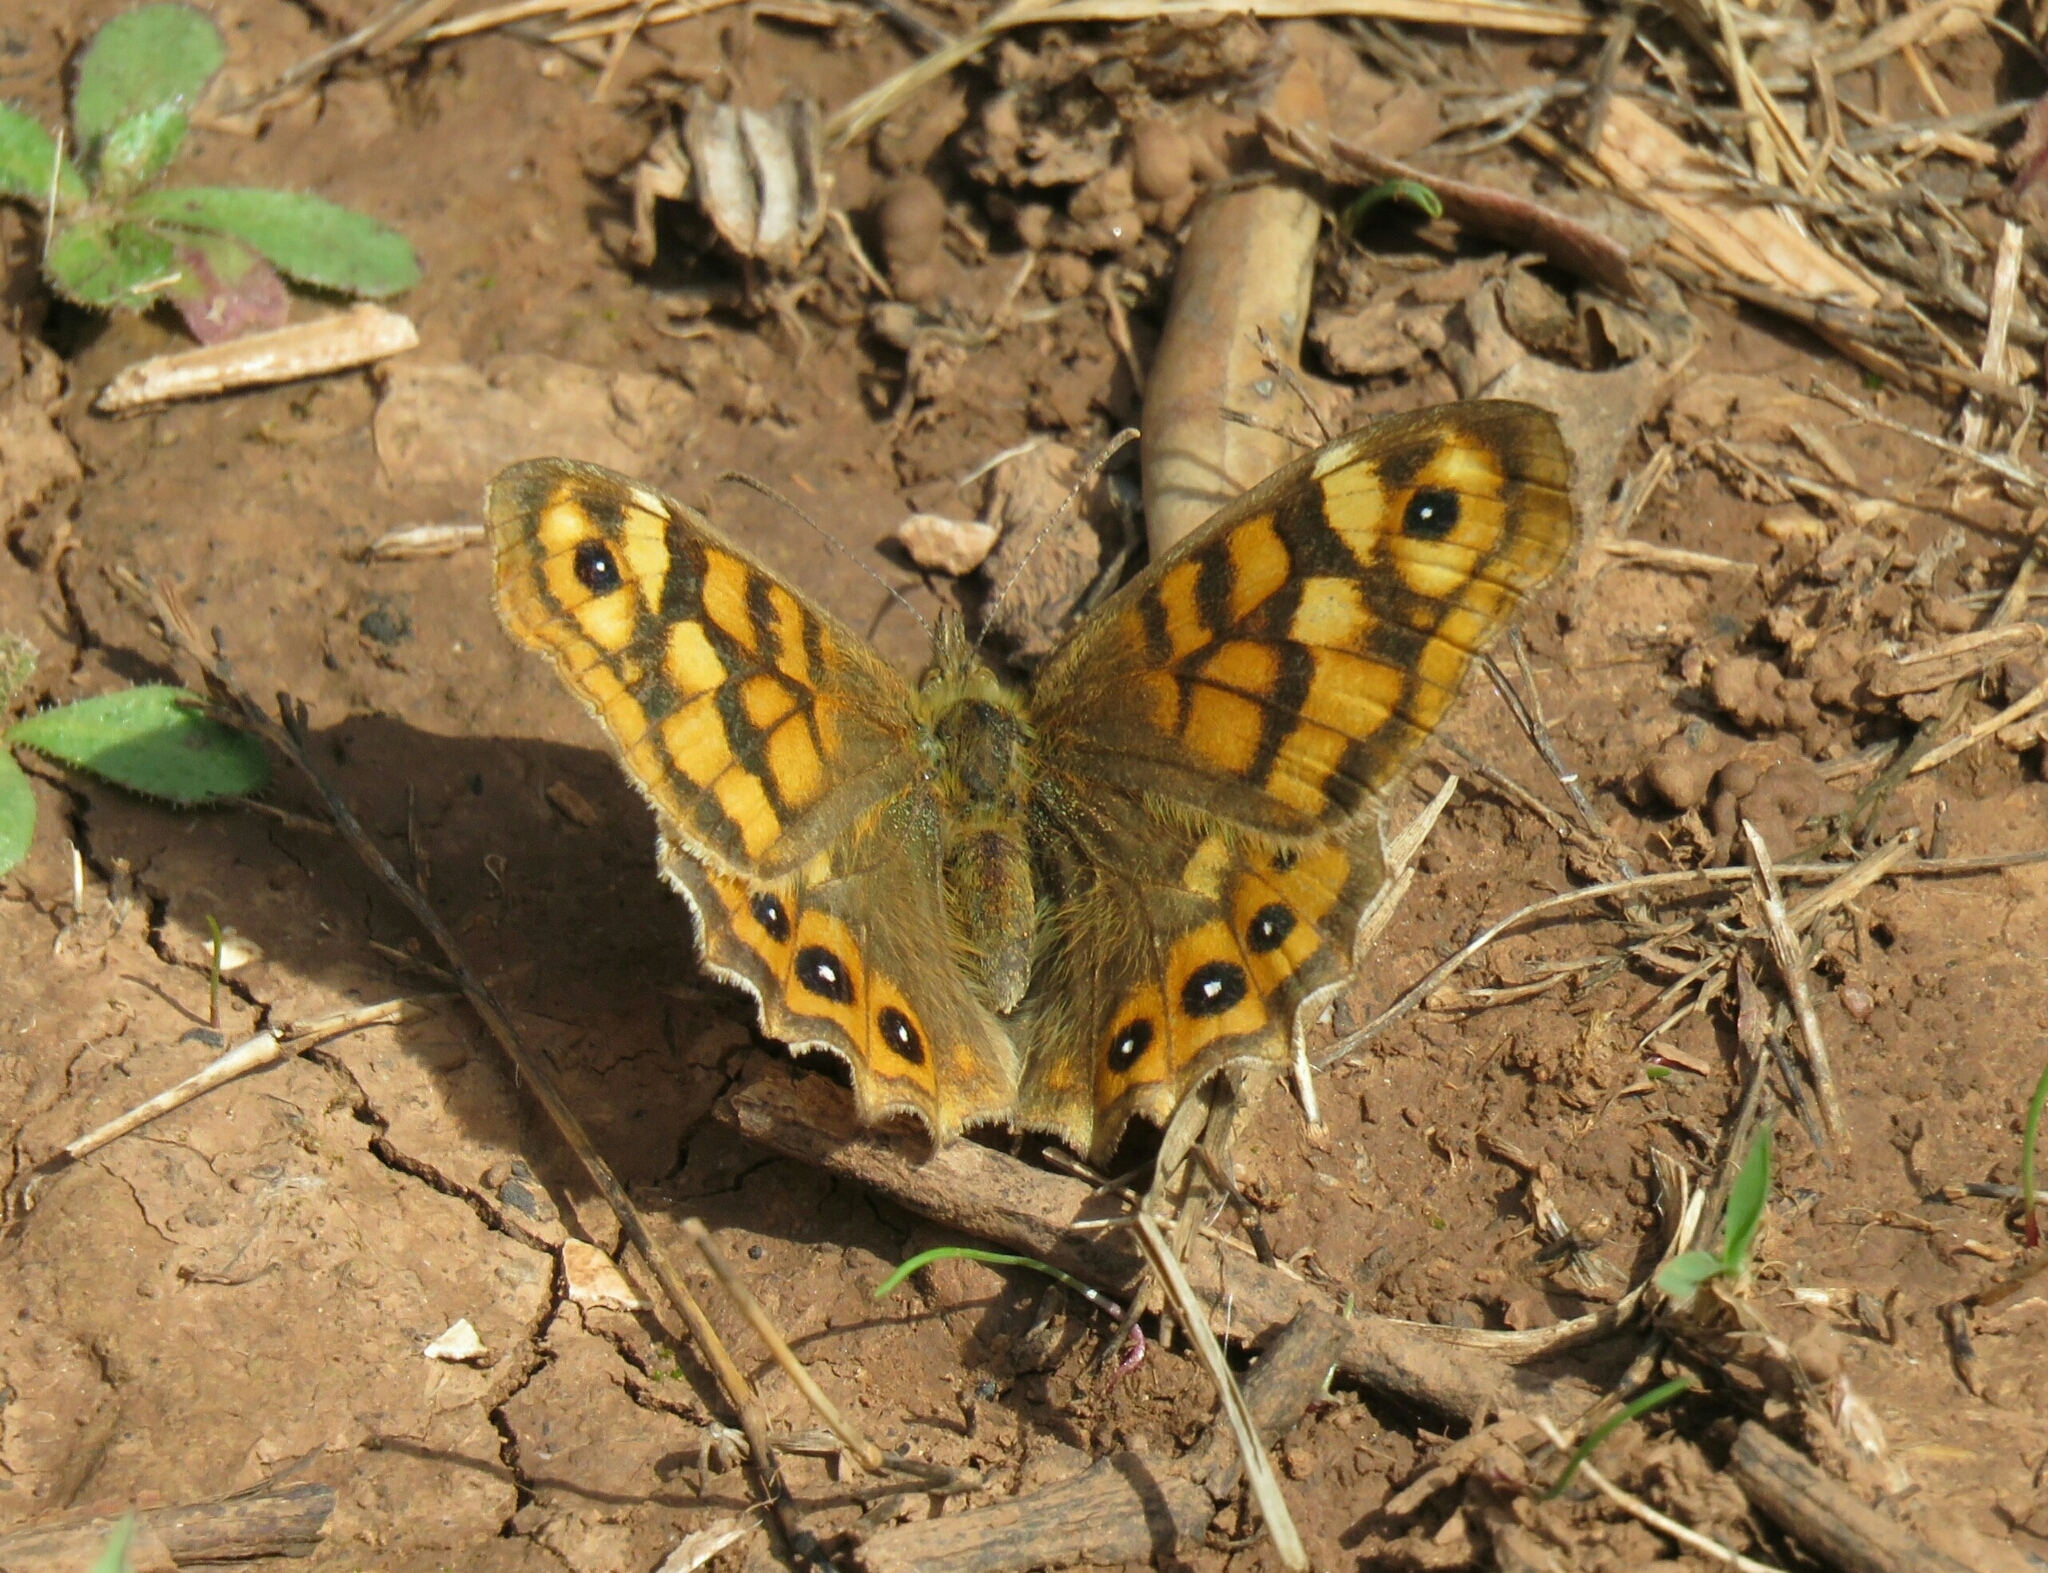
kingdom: Animalia
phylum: Arthropoda
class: Insecta
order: Lepidoptera
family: Nymphalidae
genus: Pararge
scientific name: Pararge aegeria
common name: Speckled wood
